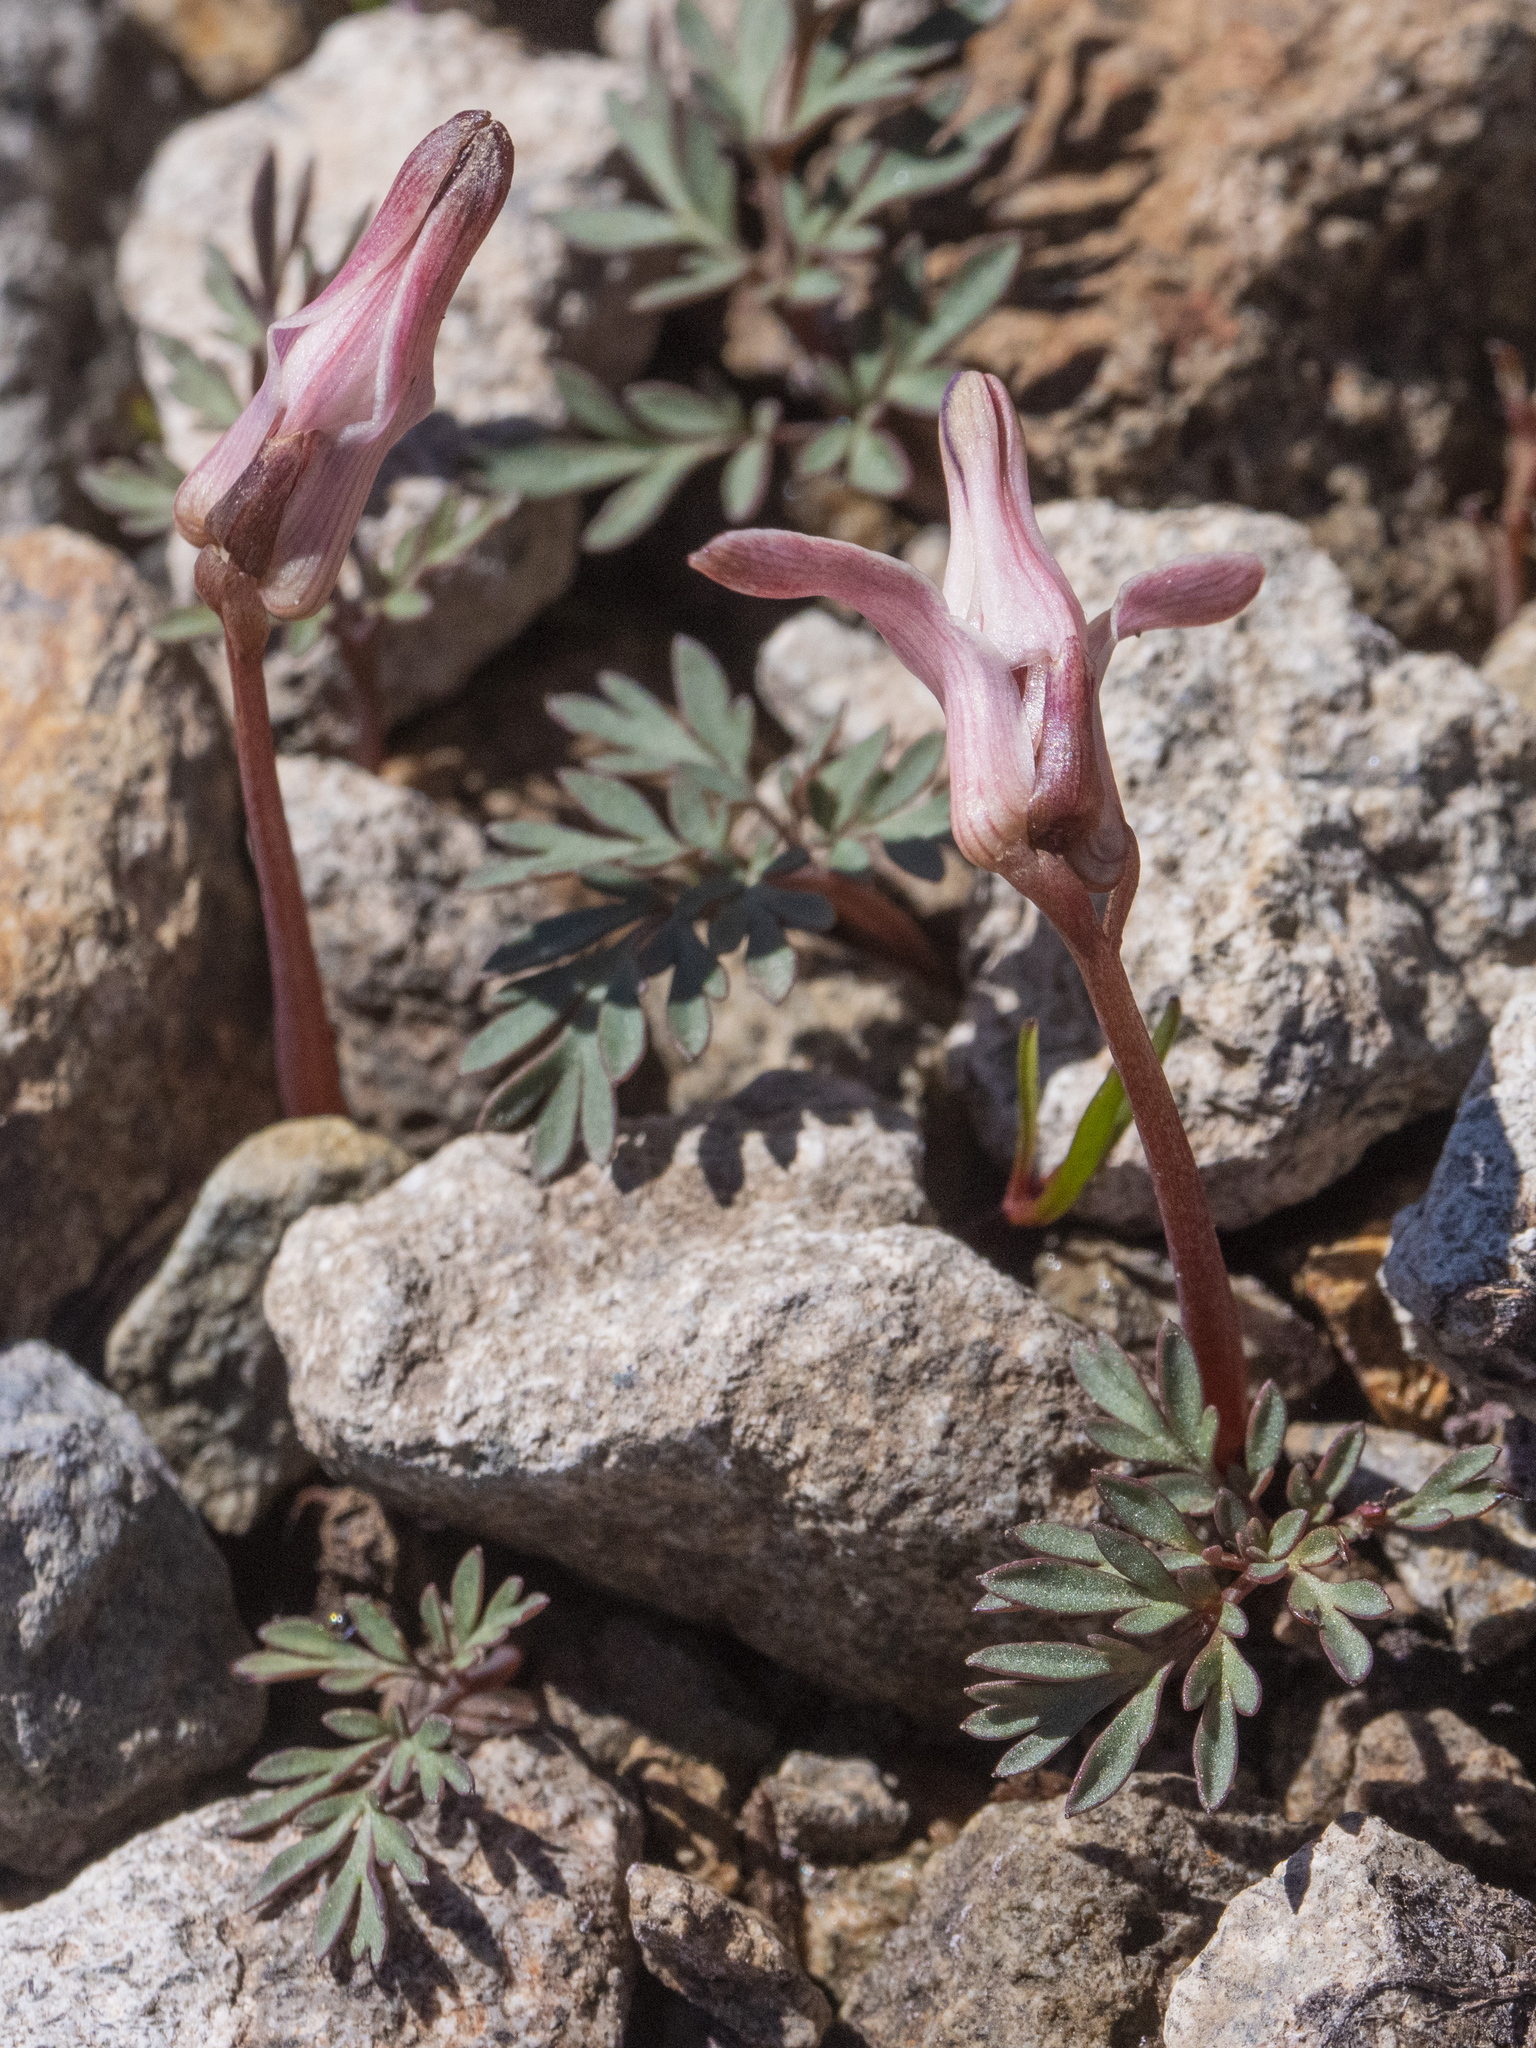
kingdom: Plantae
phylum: Tracheophyta
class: Magnoliopsida
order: Ranunculales
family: Papaveraceae
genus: Dicentra
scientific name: Dicentra uniflora
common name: Steer's-head
